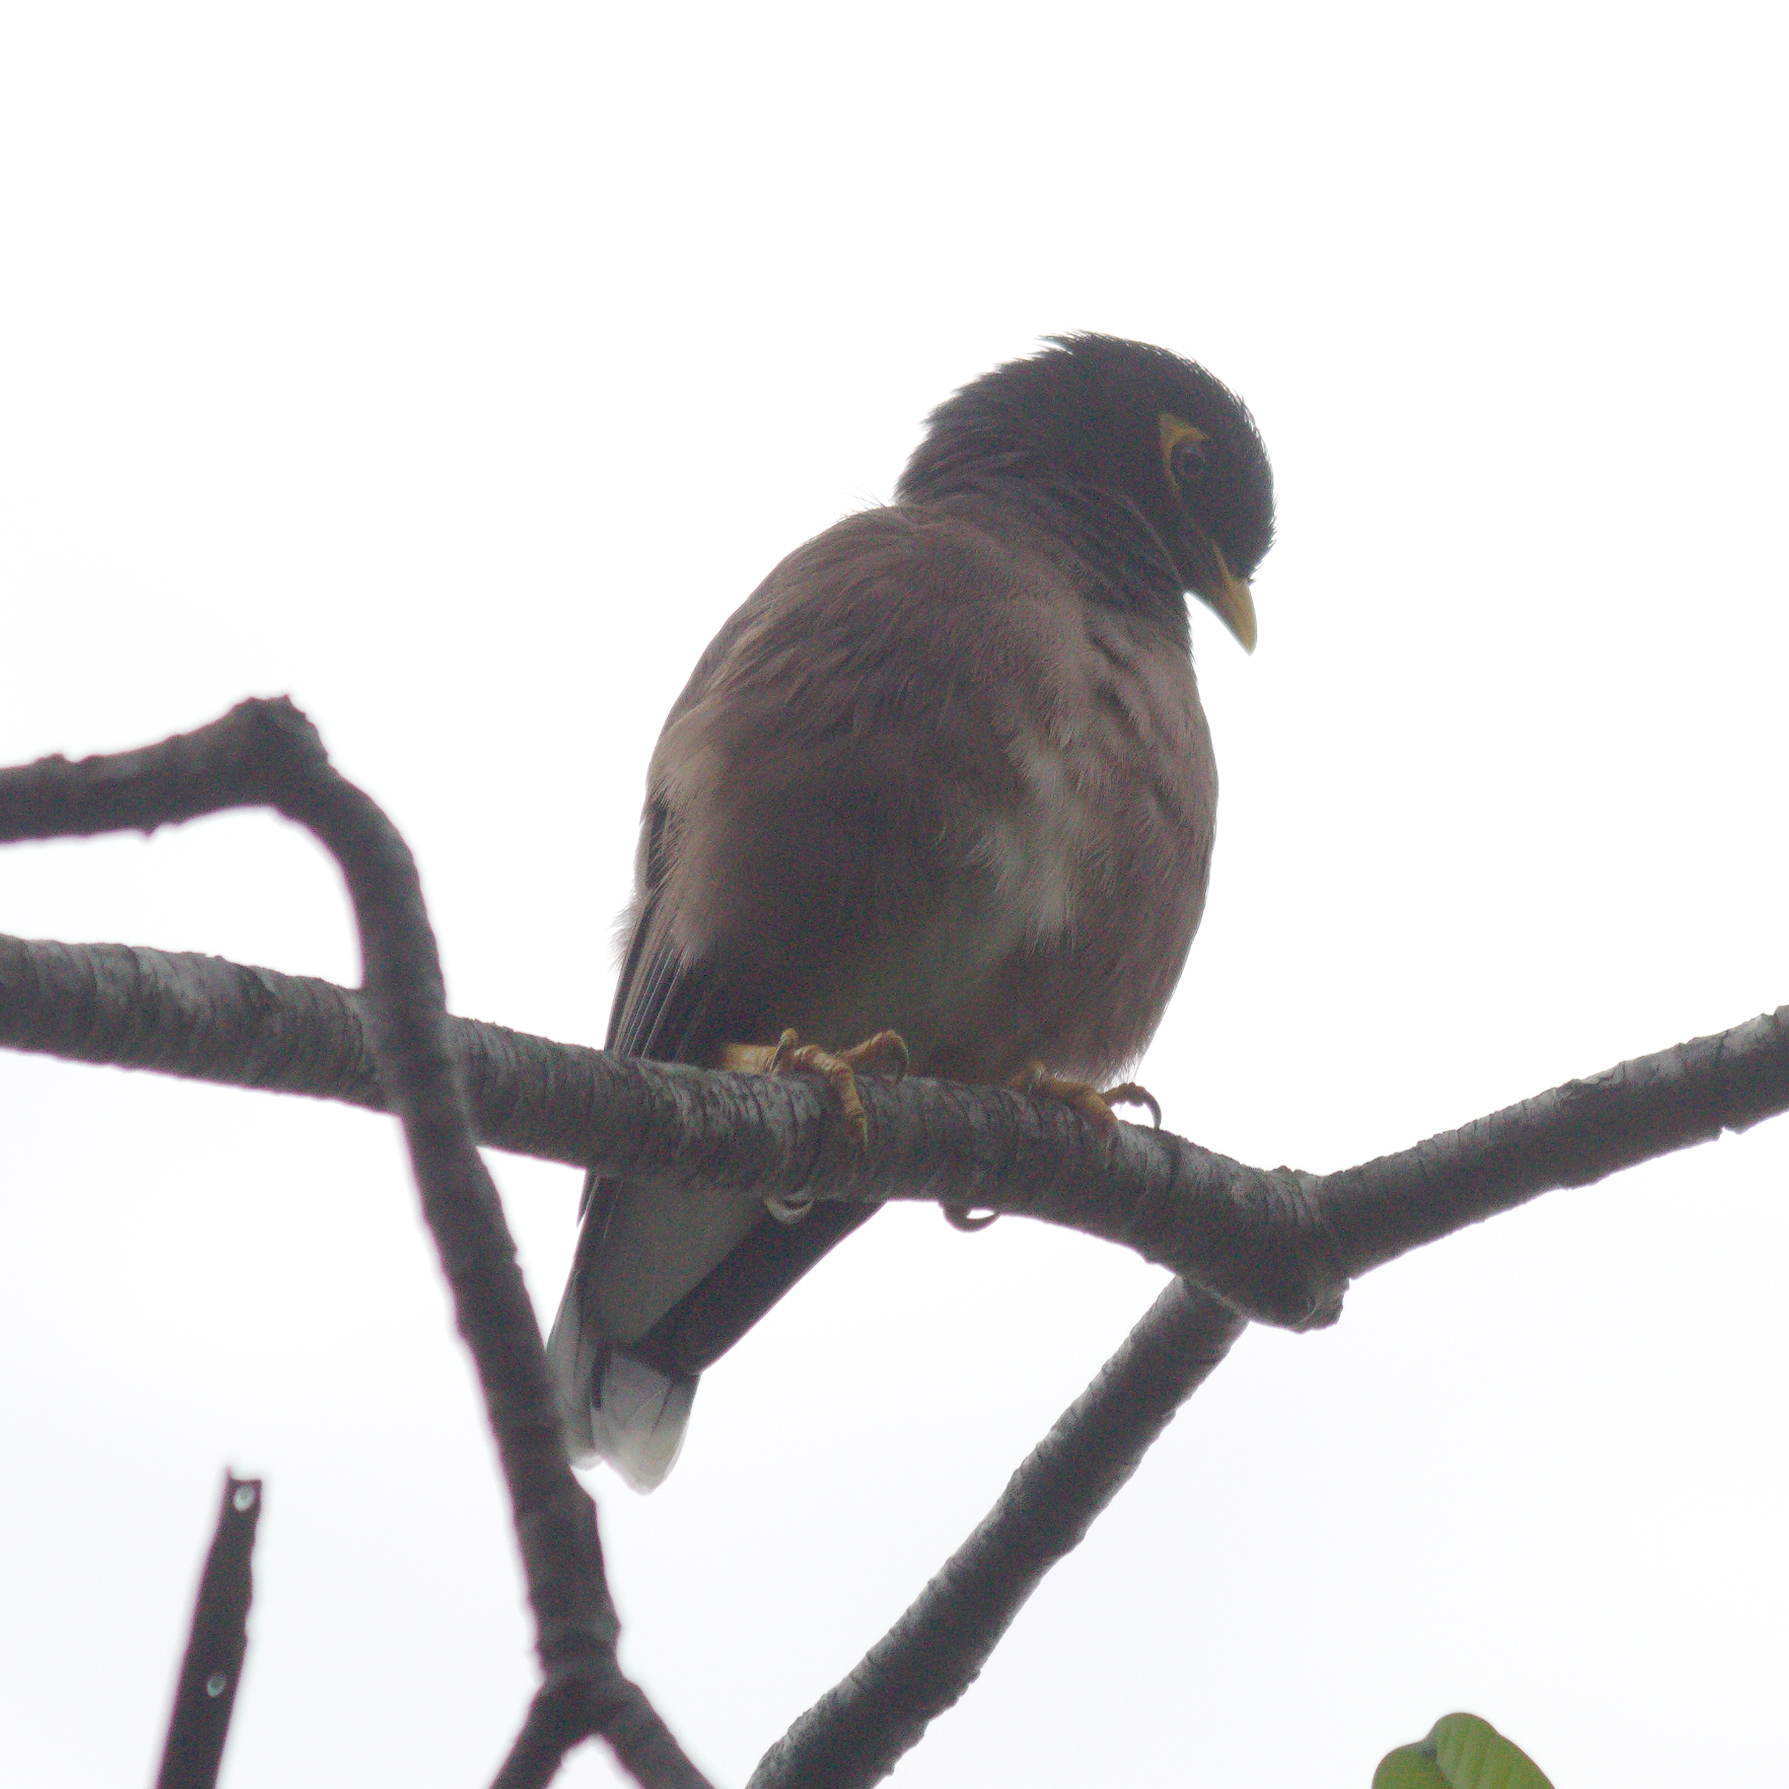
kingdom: Animalia
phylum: Chordata
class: Aves
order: Passeriformes
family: Sturnidae
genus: Acridotheres
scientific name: Acridotheres tristis
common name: Common myna
